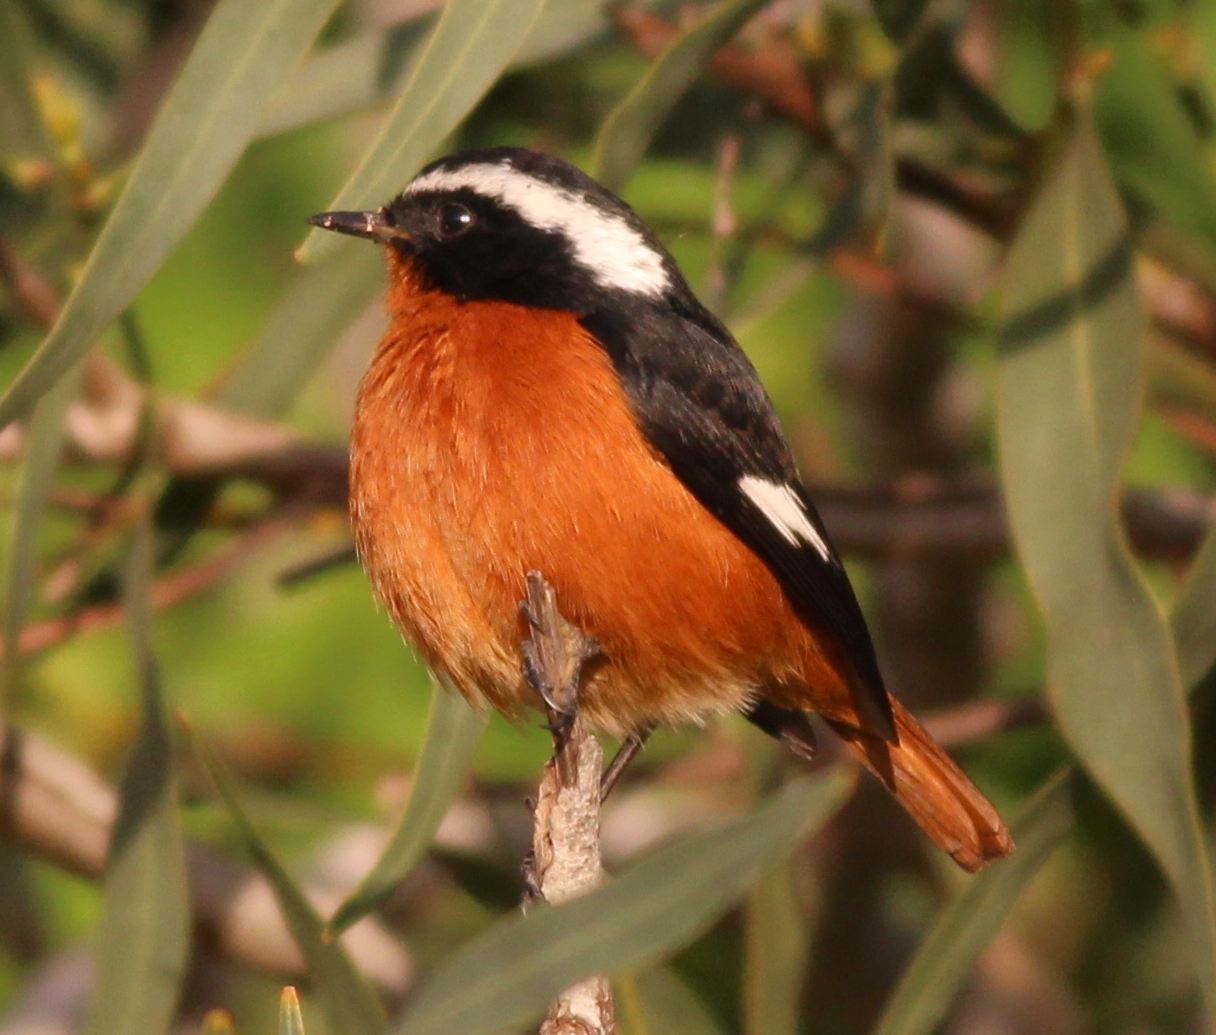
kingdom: Animalia
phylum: Chordata
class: Aves
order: Passeriformes
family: Muscicapidae
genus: Phoenicurus
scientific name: Phoenicurus moussieri
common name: Moussier's redstart
